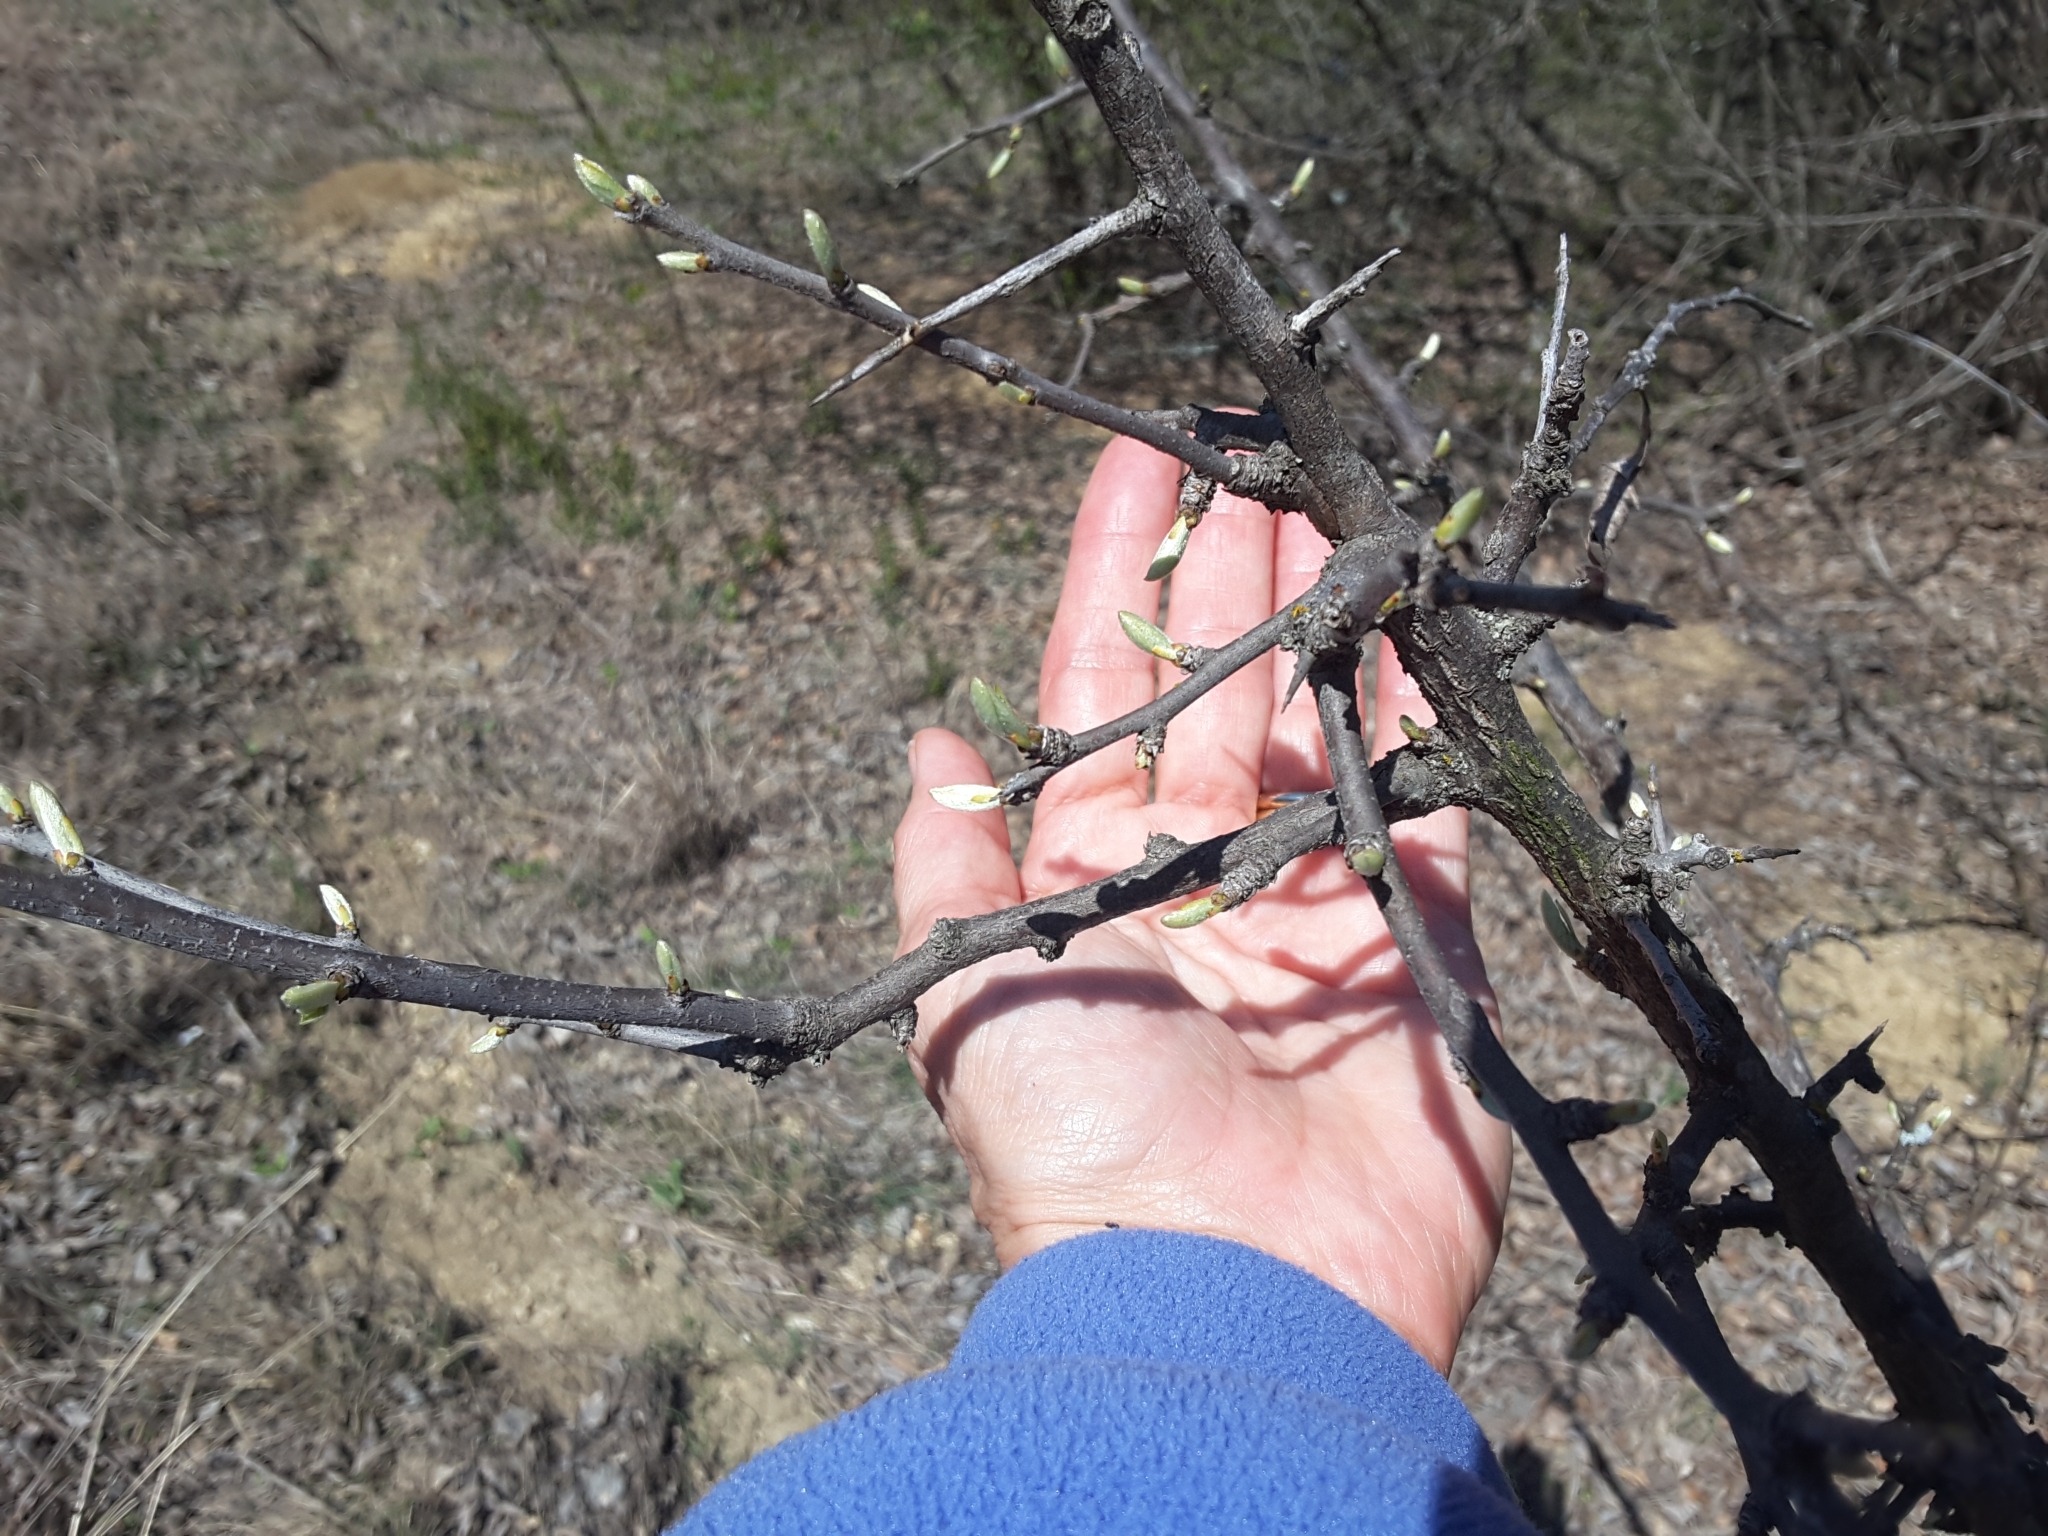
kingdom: Plantae
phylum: Tracheophyta
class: Magnoliopsida
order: Ericales
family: Sapotaceae
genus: Sideroxylon
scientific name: Sideroxylon lanuginosum
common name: Chittamwood
